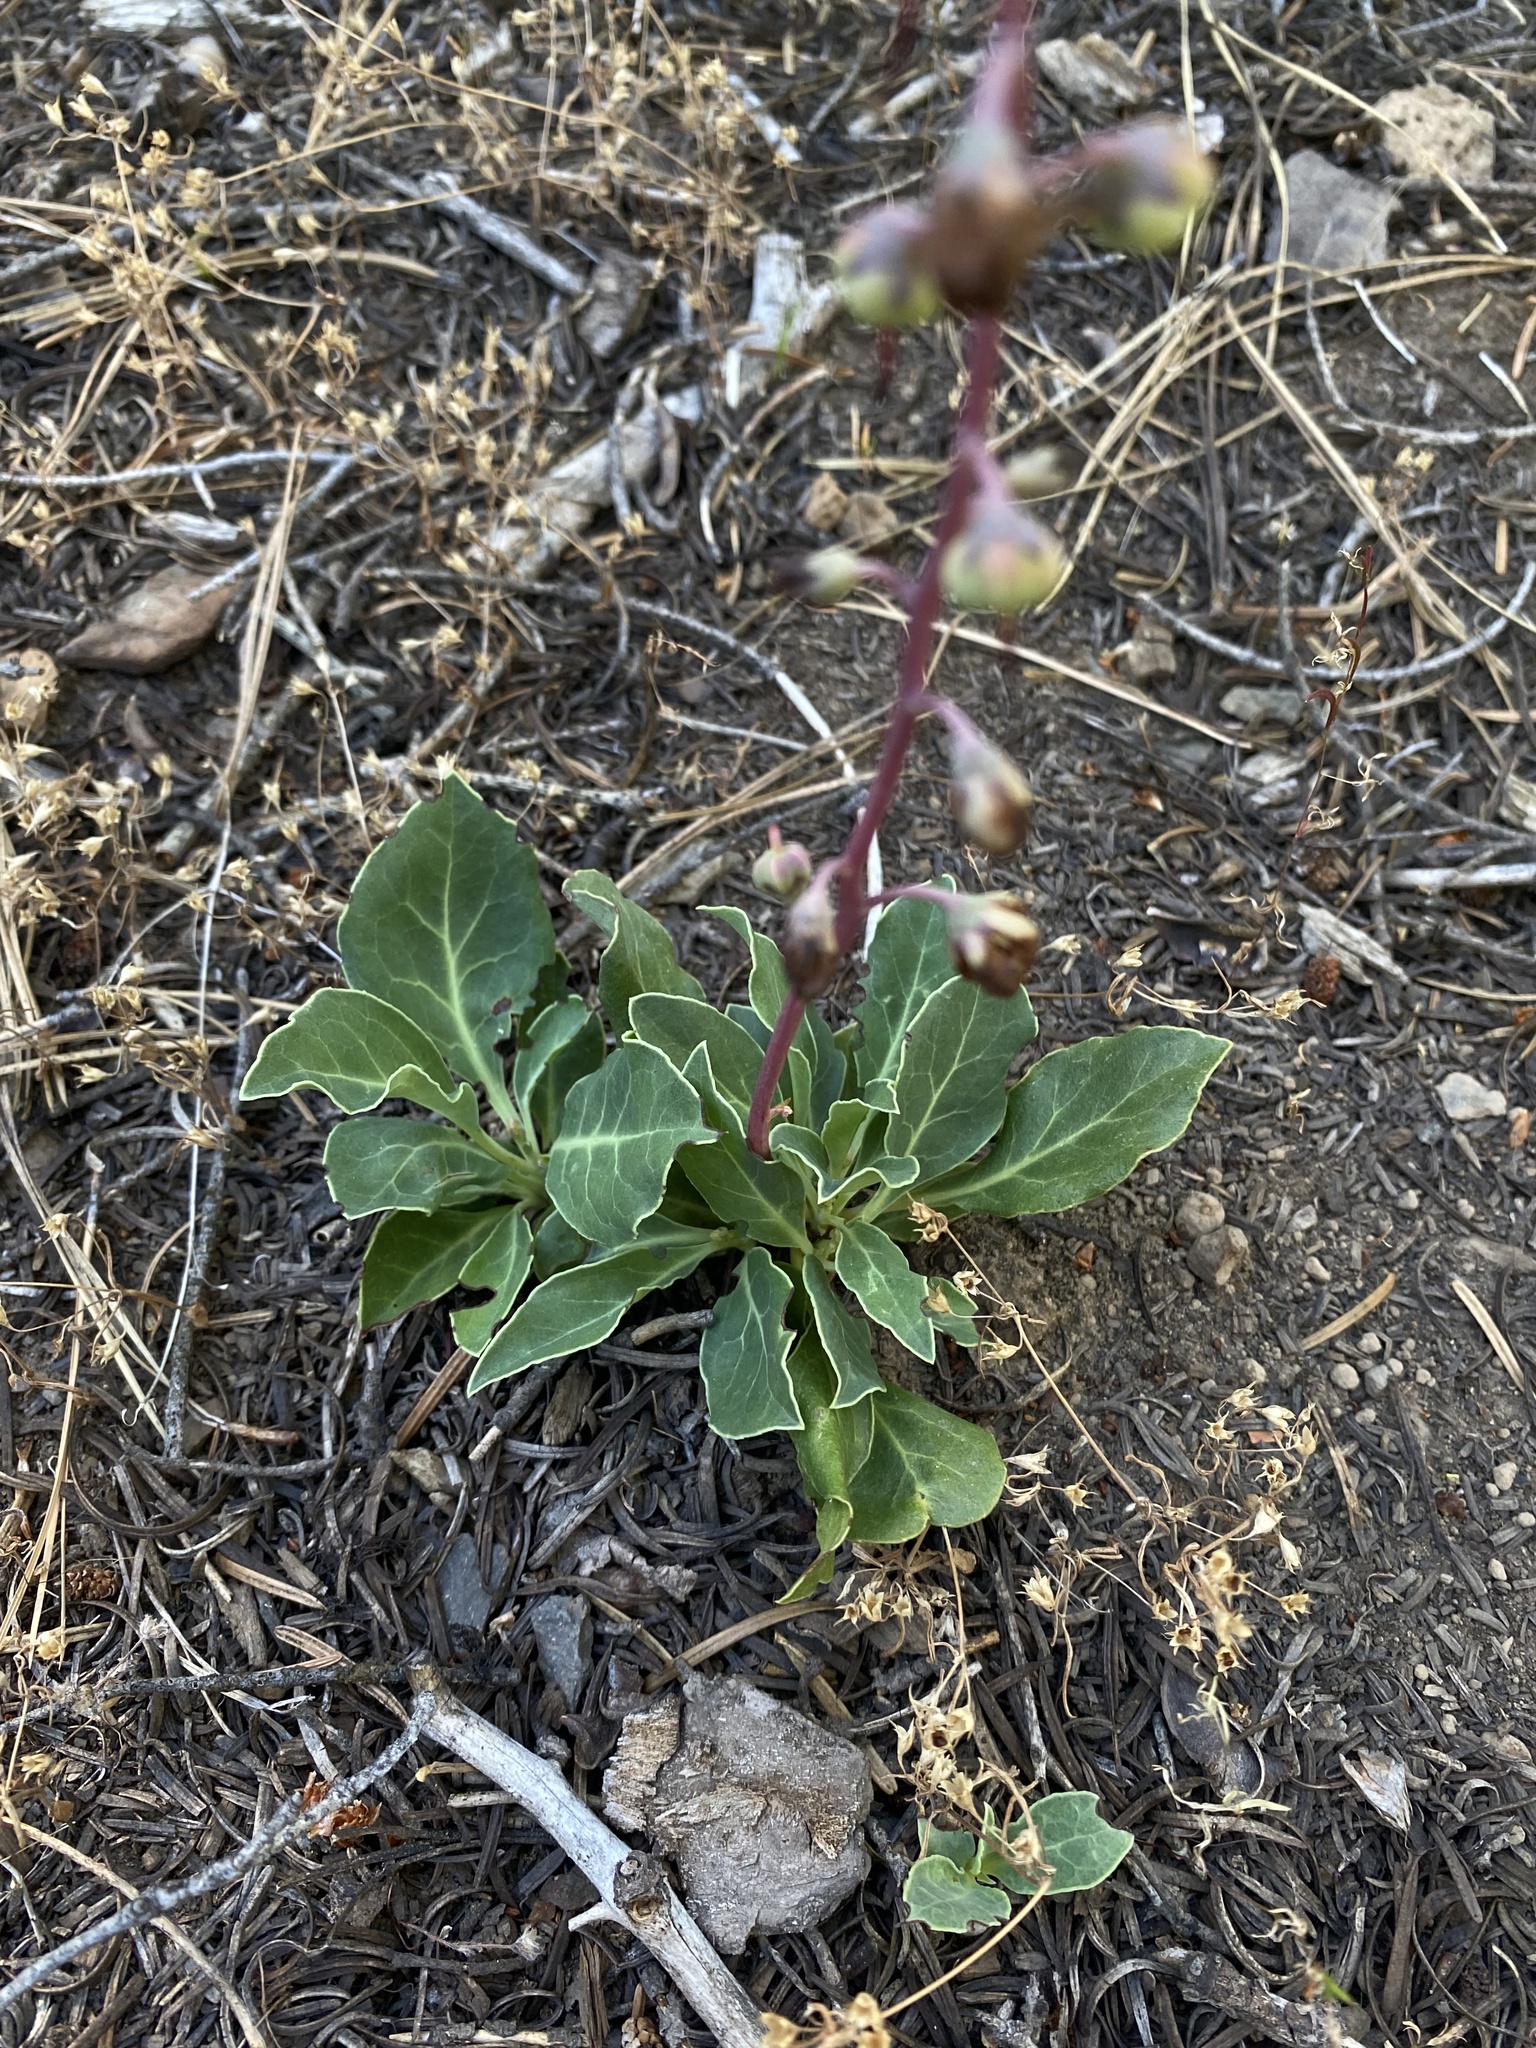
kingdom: Plantae
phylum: Tracheophyta
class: Magnoliopsida
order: Ericales
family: Ericaceae
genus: Pyrola
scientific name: Pyrola dentata
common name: Tooth-leaved wintergreen
